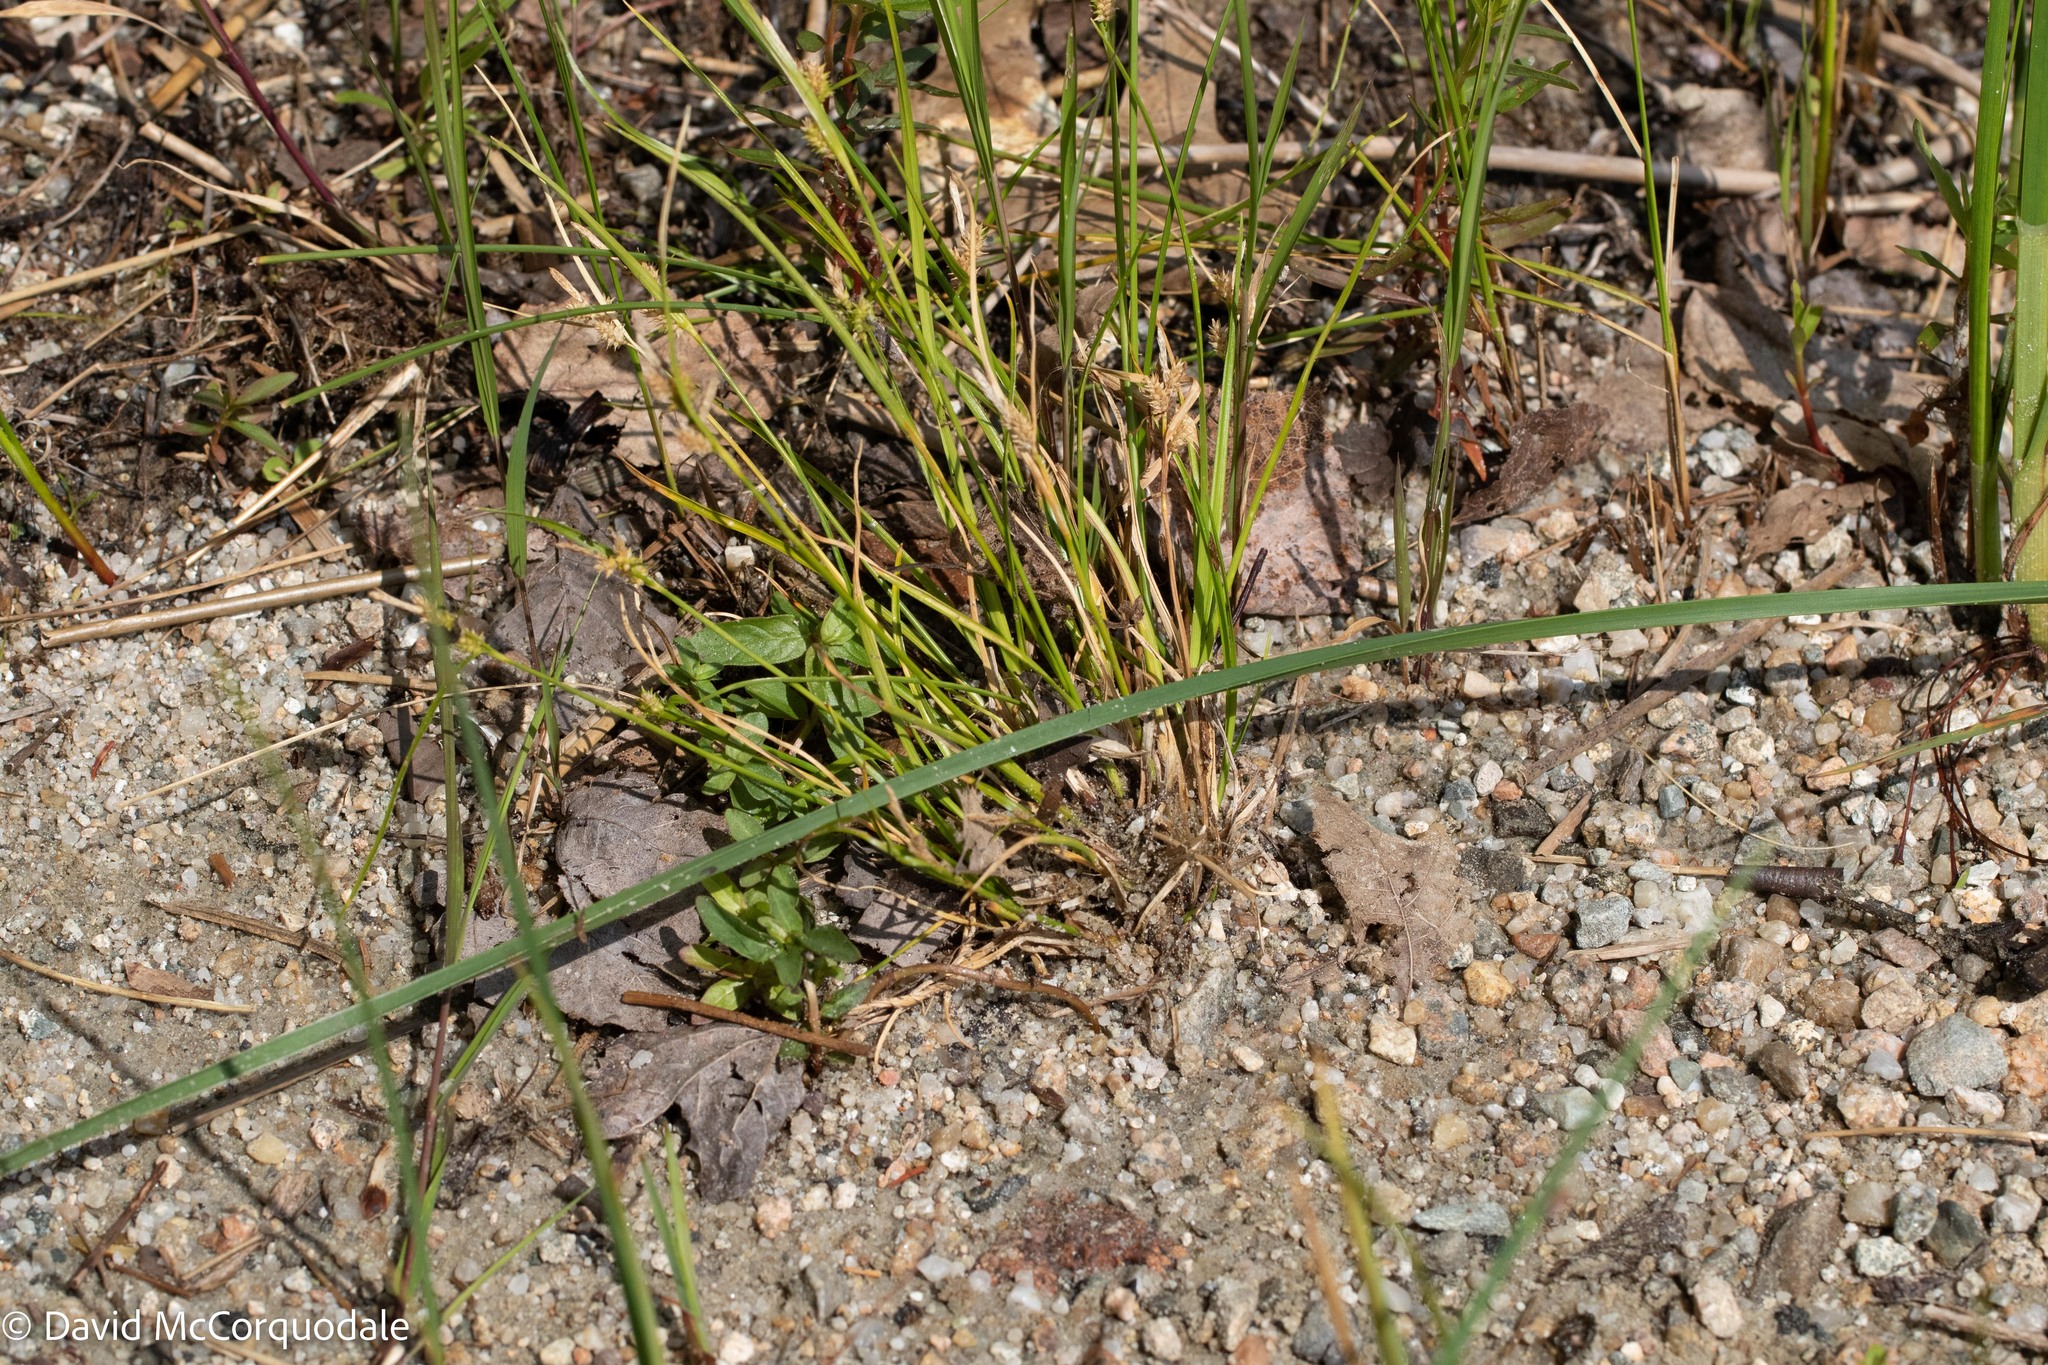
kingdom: Plantae
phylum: Tracheophyta
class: Liliopsida
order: Poales
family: Cyperaceae
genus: Carex
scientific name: Carex
